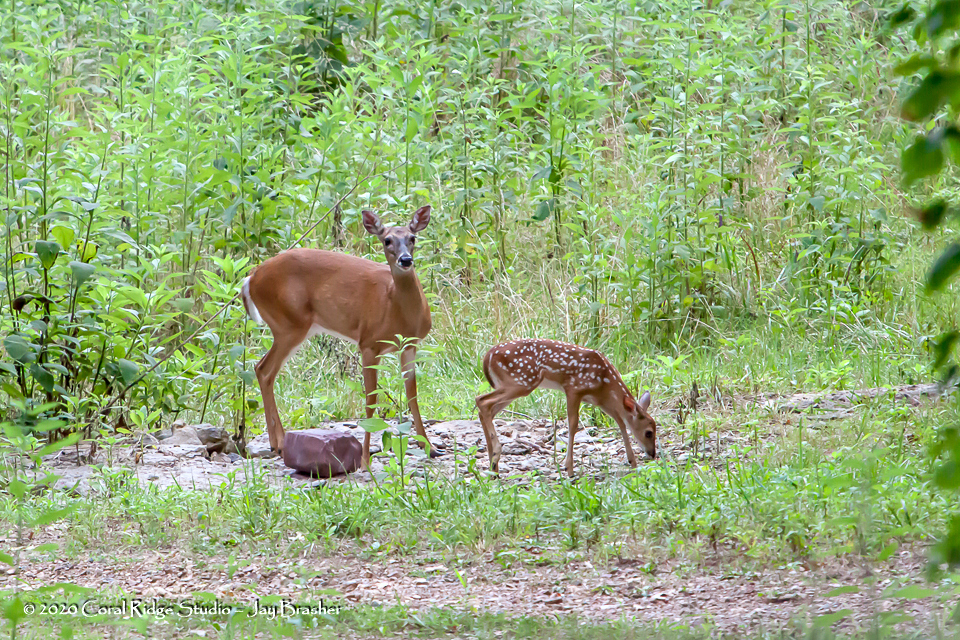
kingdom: Animalia
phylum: Chordata
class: Mammalia
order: Artiodactyla
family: Cervidae
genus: Odocoileus
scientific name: Odocoileus virginianus
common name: White-tailed deer
